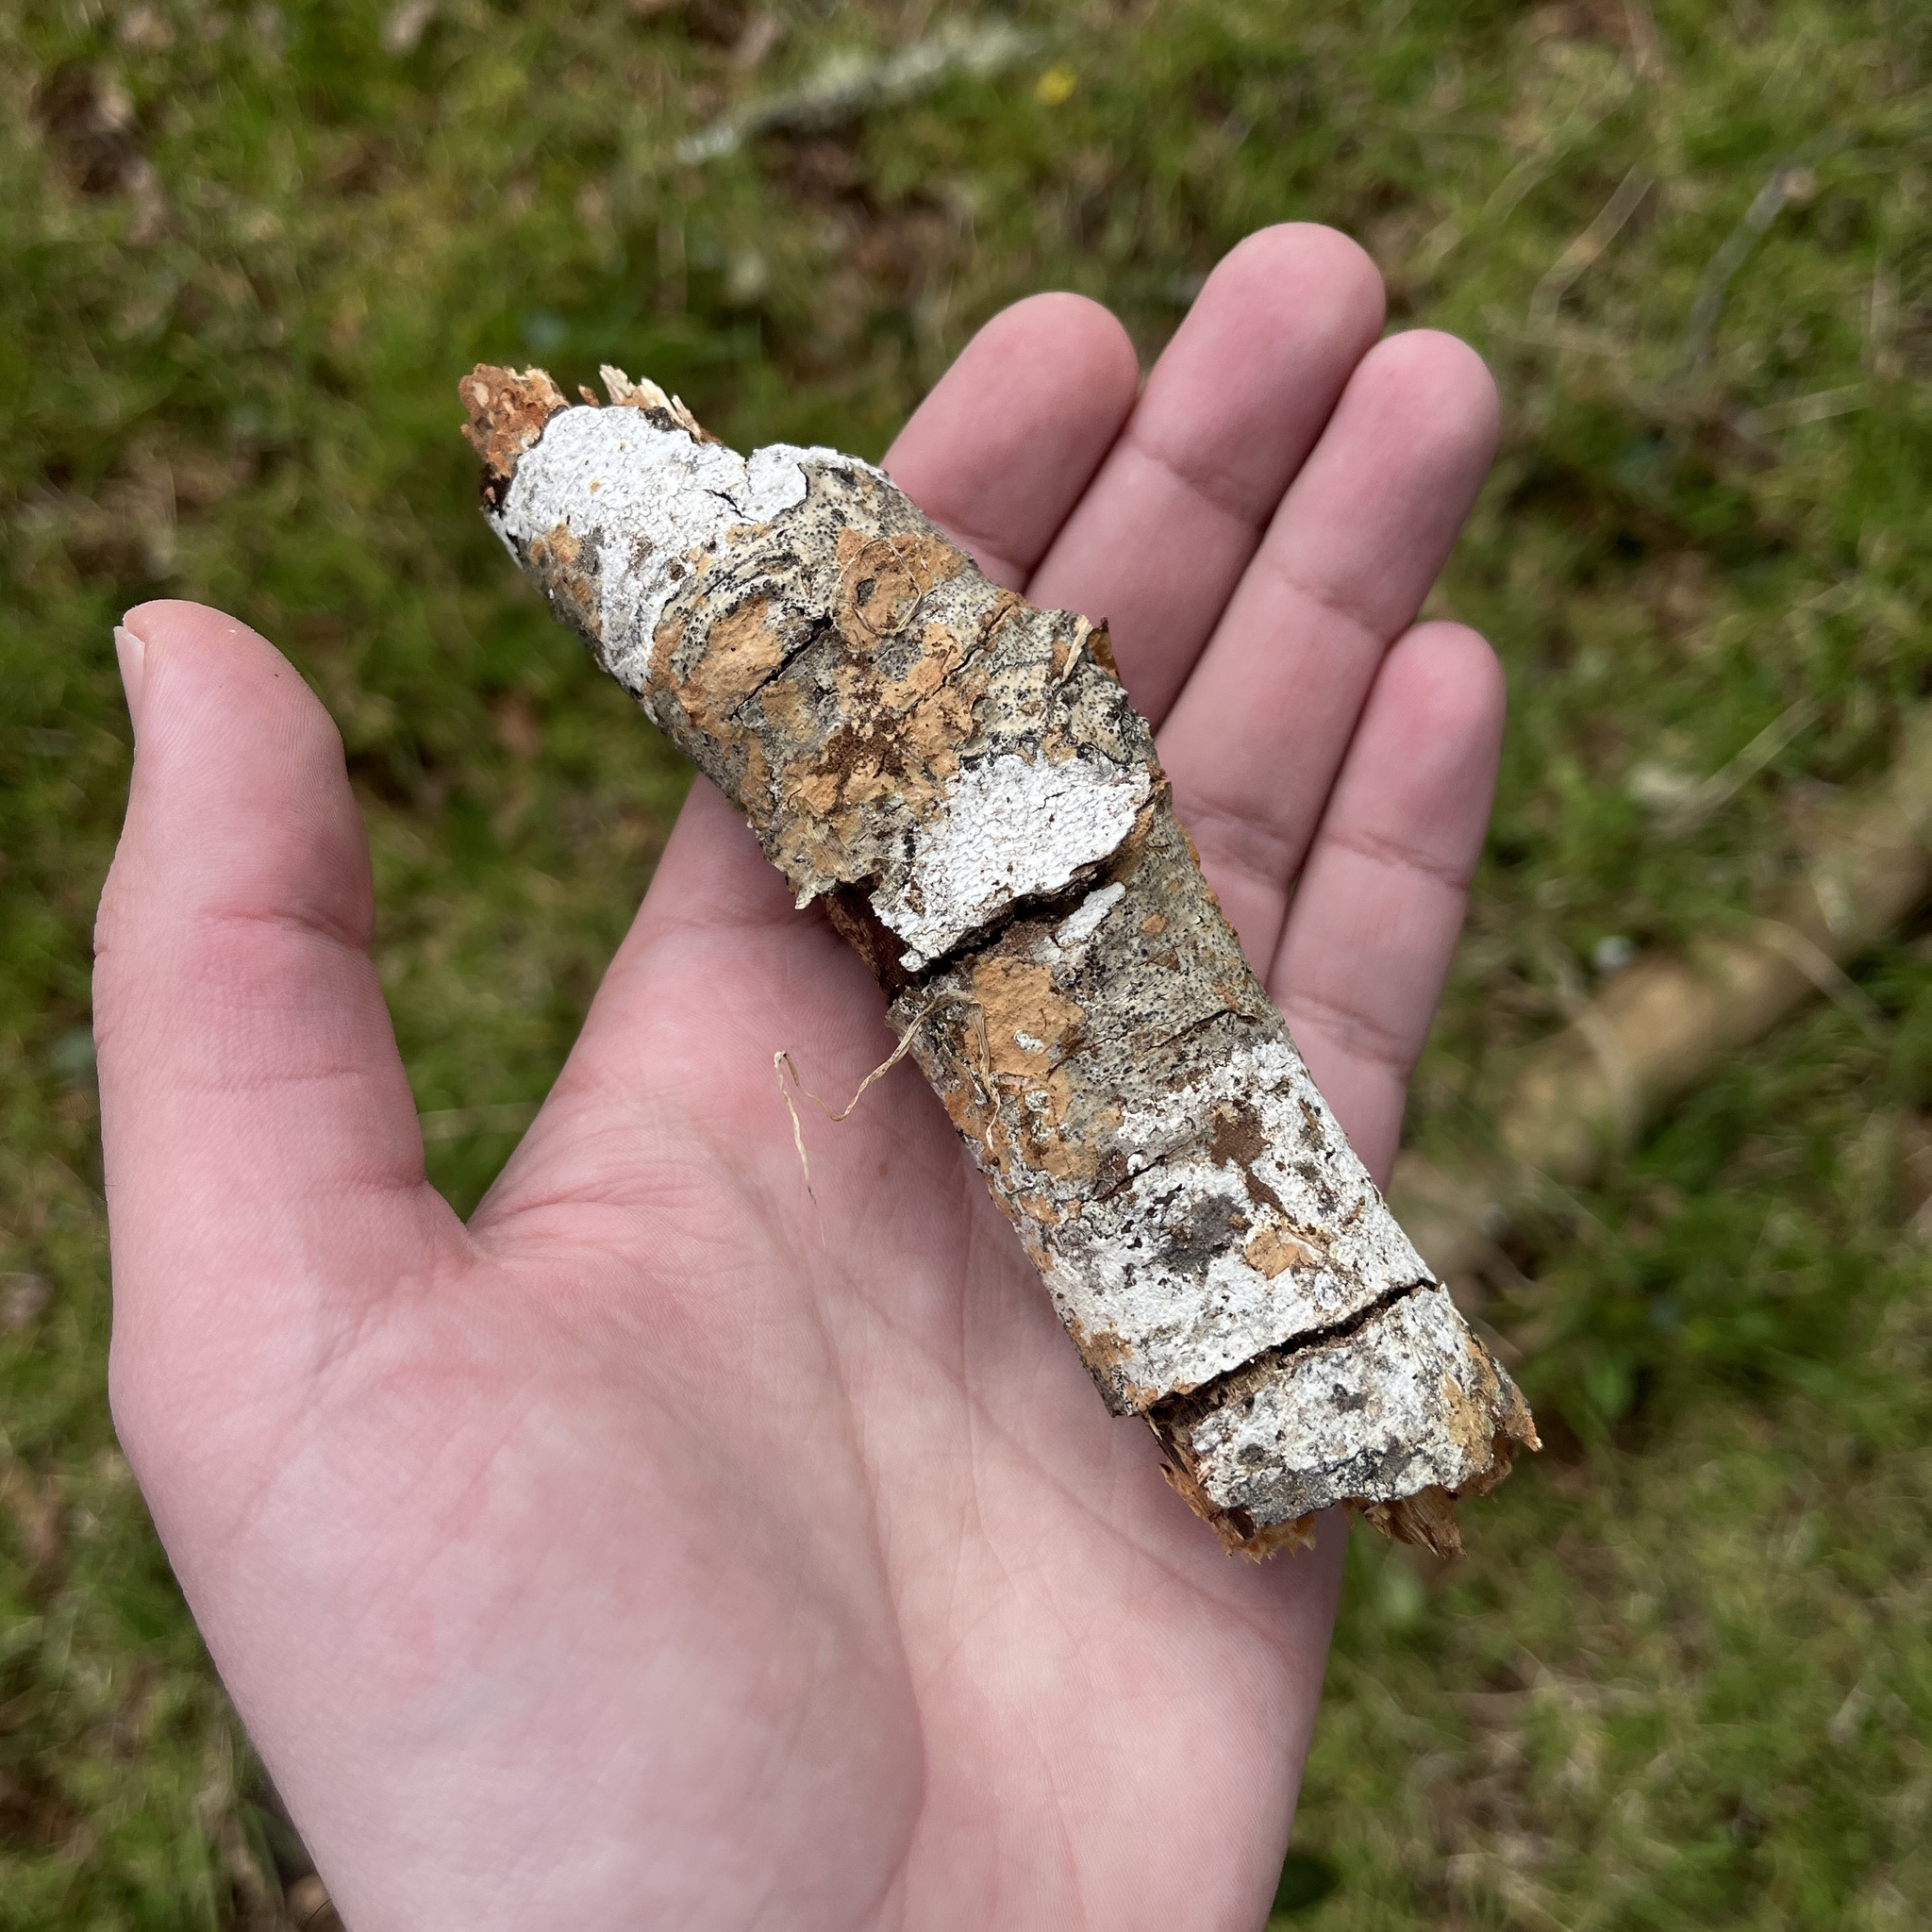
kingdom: Fungi
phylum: Basidiomycota
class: Agaricomycetes
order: Hymenochaetales
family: Schizoporaceae
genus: Xylodon
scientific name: Xylodon magallanesii
